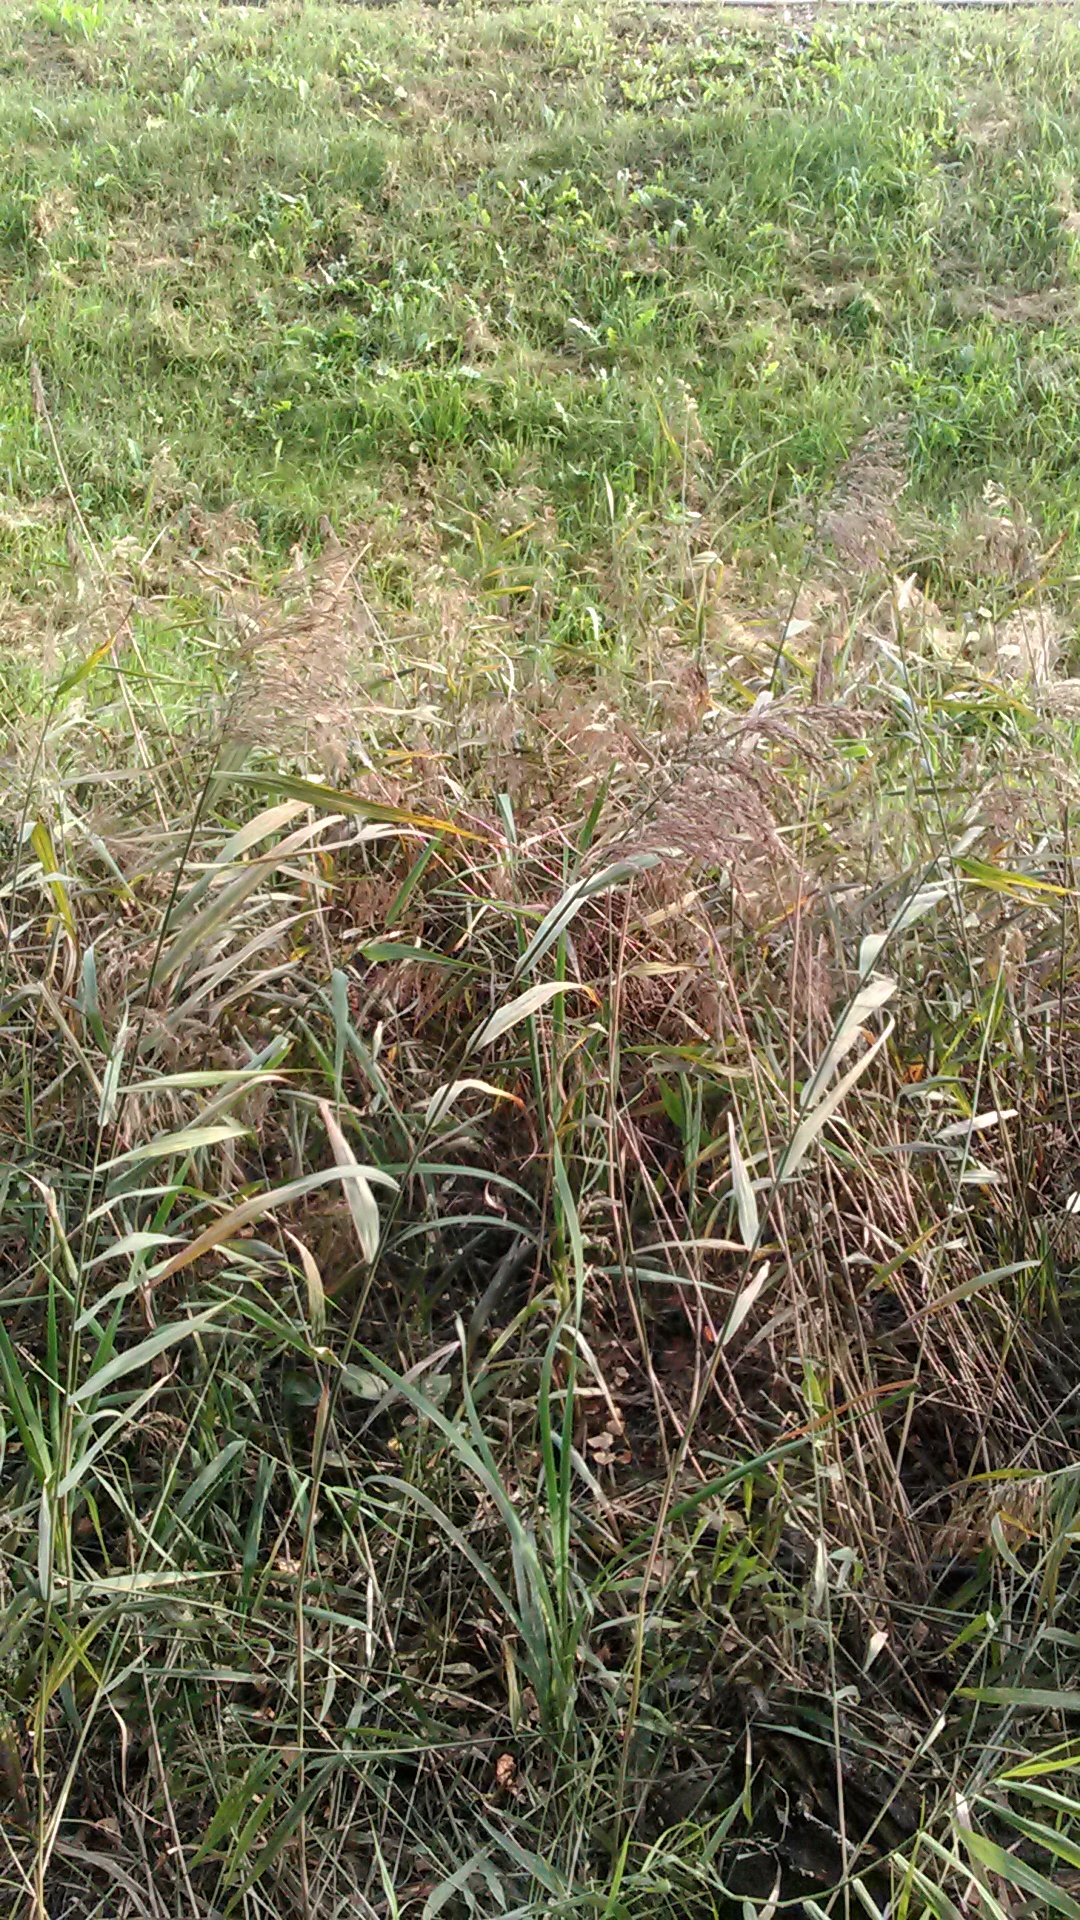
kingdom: Plantae
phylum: Tracheophyta
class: Liliopsida
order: Poales
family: Poaceae
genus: Phragmites
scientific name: Phragmites australis
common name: Common reed
